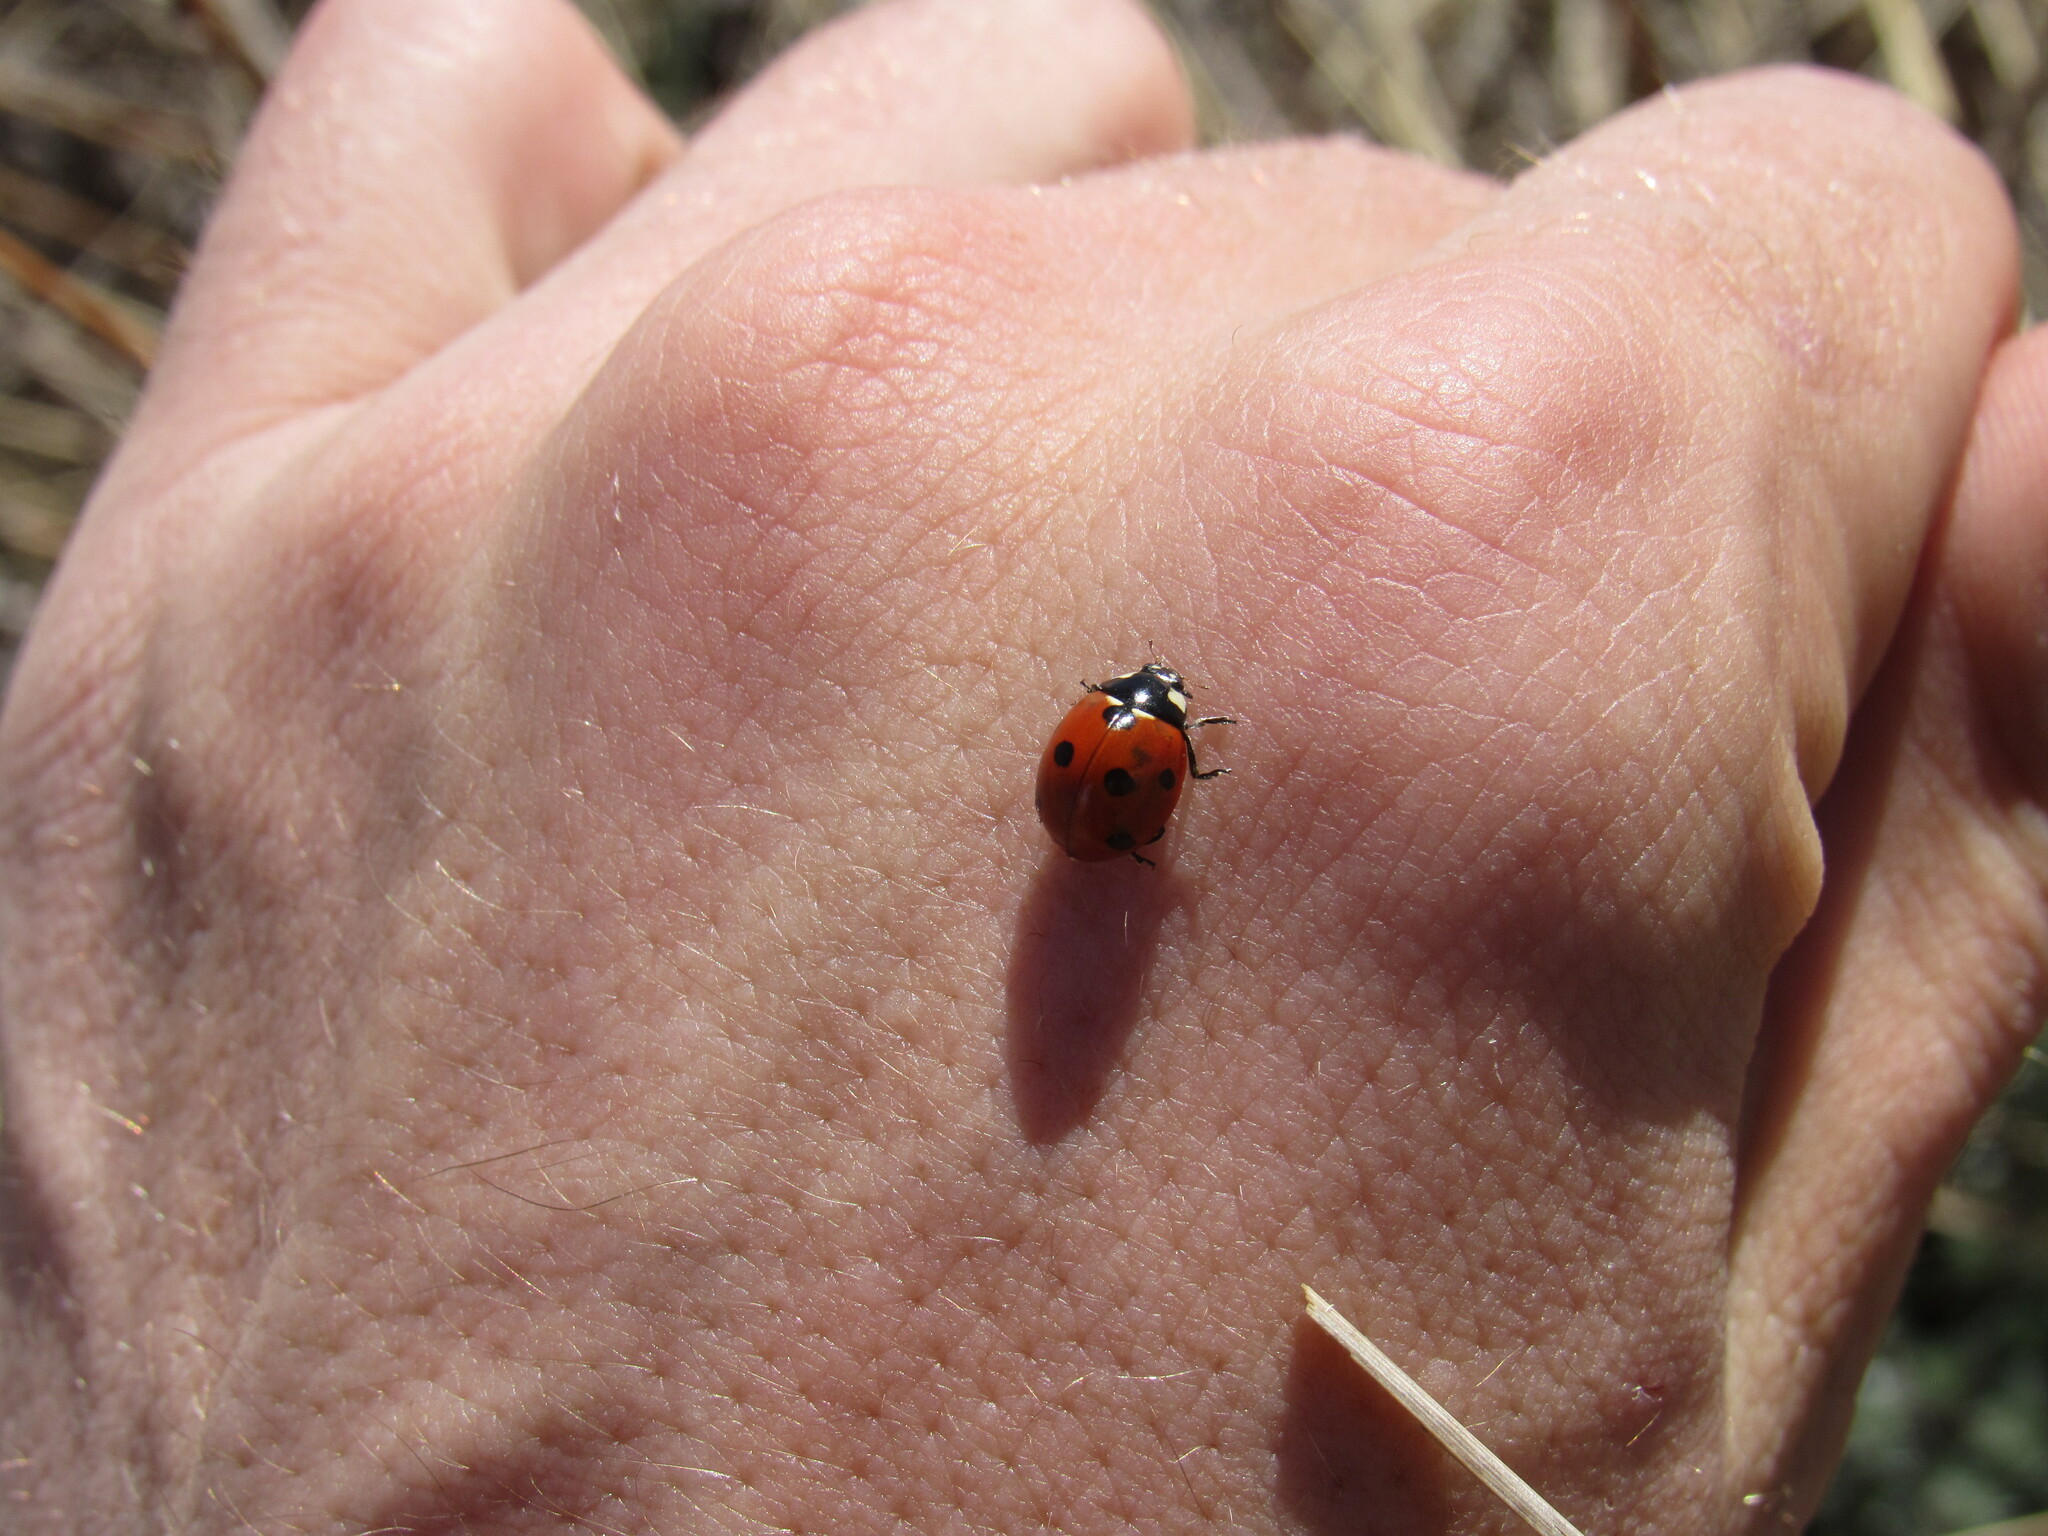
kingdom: Animalia
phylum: Arthropoda
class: Insecta
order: Coleoptera
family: Coccinellidae
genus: Coccinella
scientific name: Coccinella septempunctata
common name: Sevenspotted lady beetle
